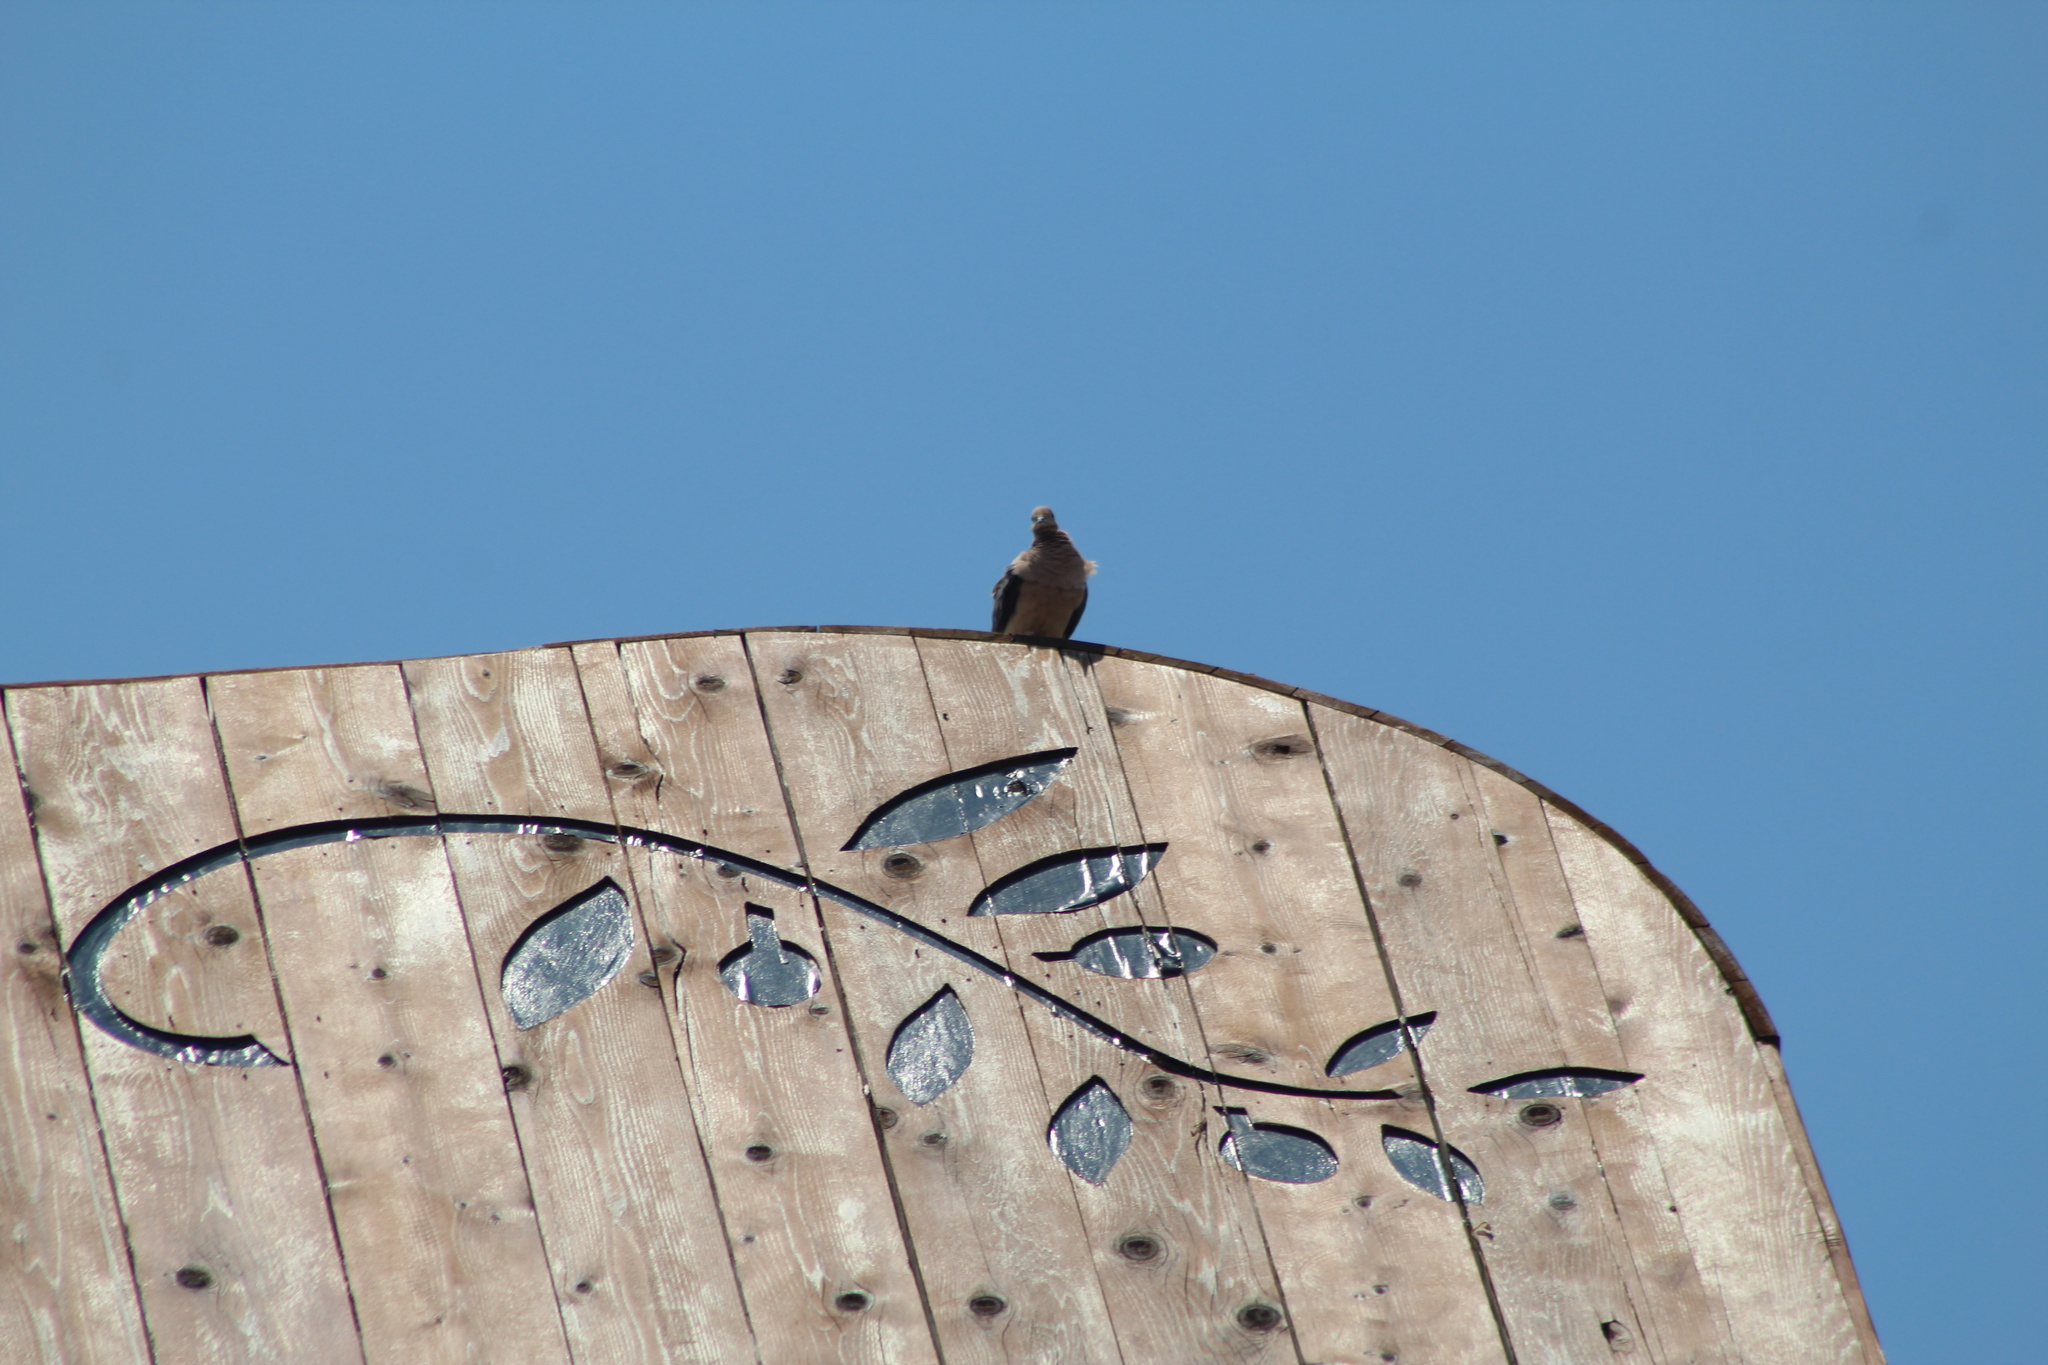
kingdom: Animalia
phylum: Chordata
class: Aves
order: Columbiformes
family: Columbidae
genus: Zenaida
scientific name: Zenaida macroura
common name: Mourning dove
